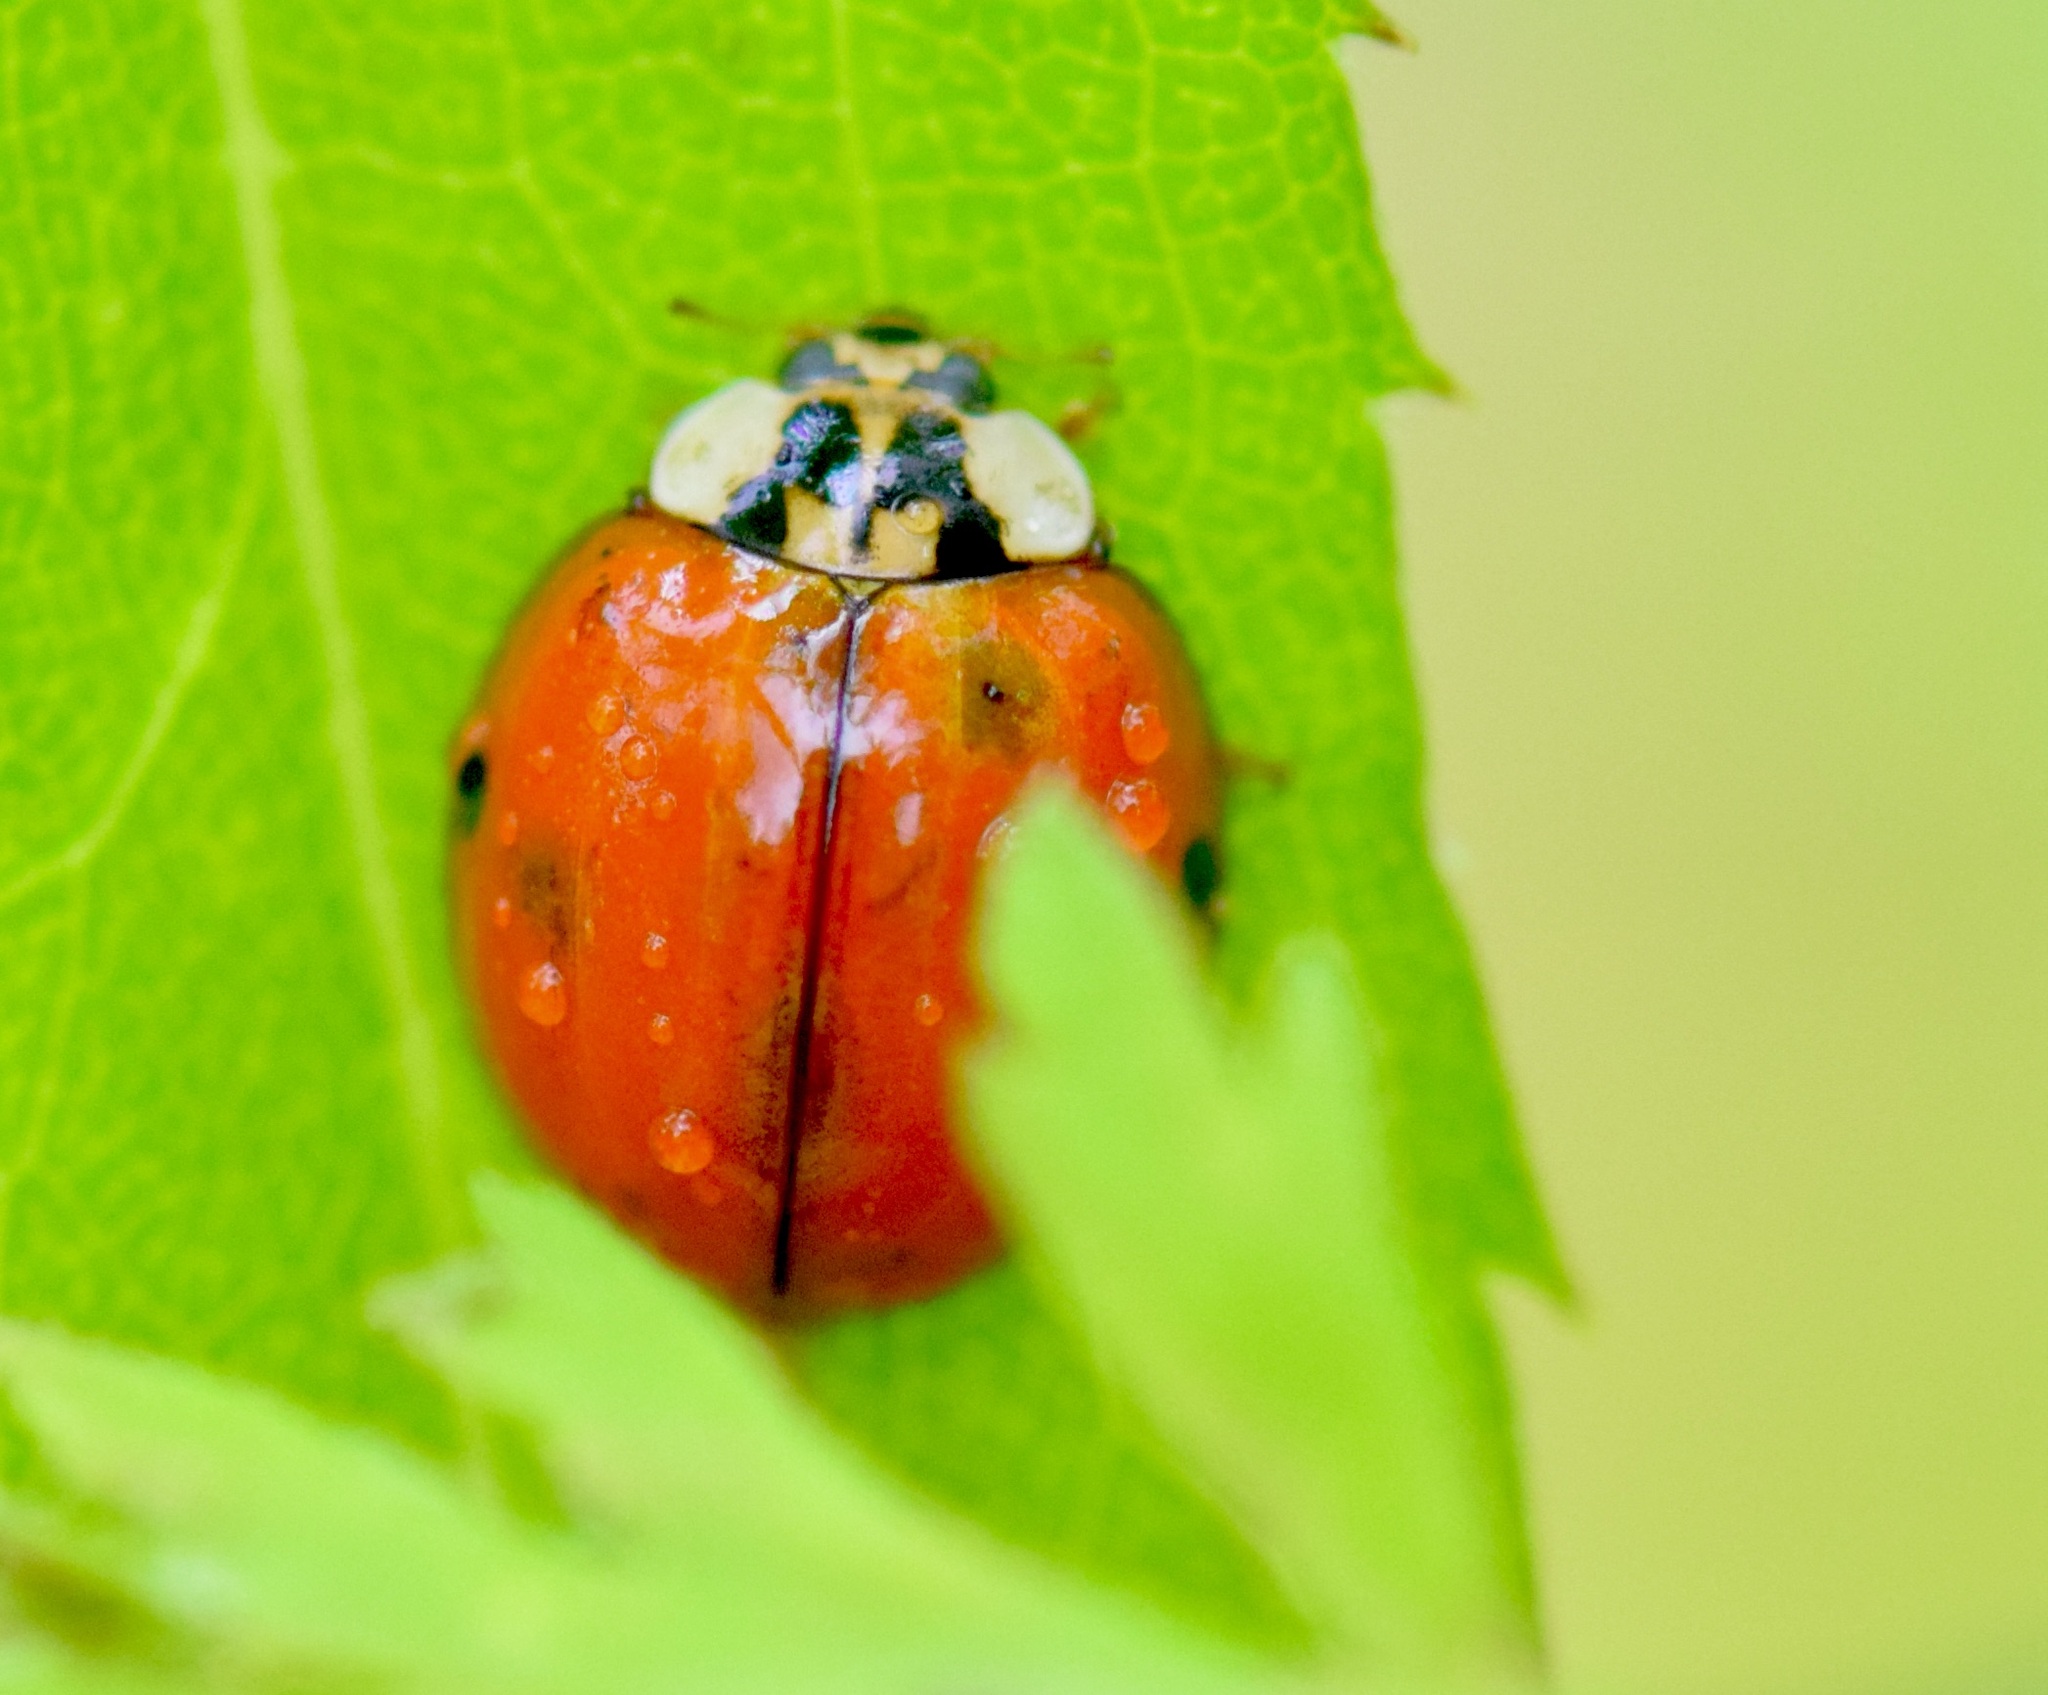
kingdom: Animalia
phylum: Arthropoda
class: Insecta
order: Coleoptera
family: Coccinellidae
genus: Harmonia
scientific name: Harmonia axyridis
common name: Harlequin ladybird
